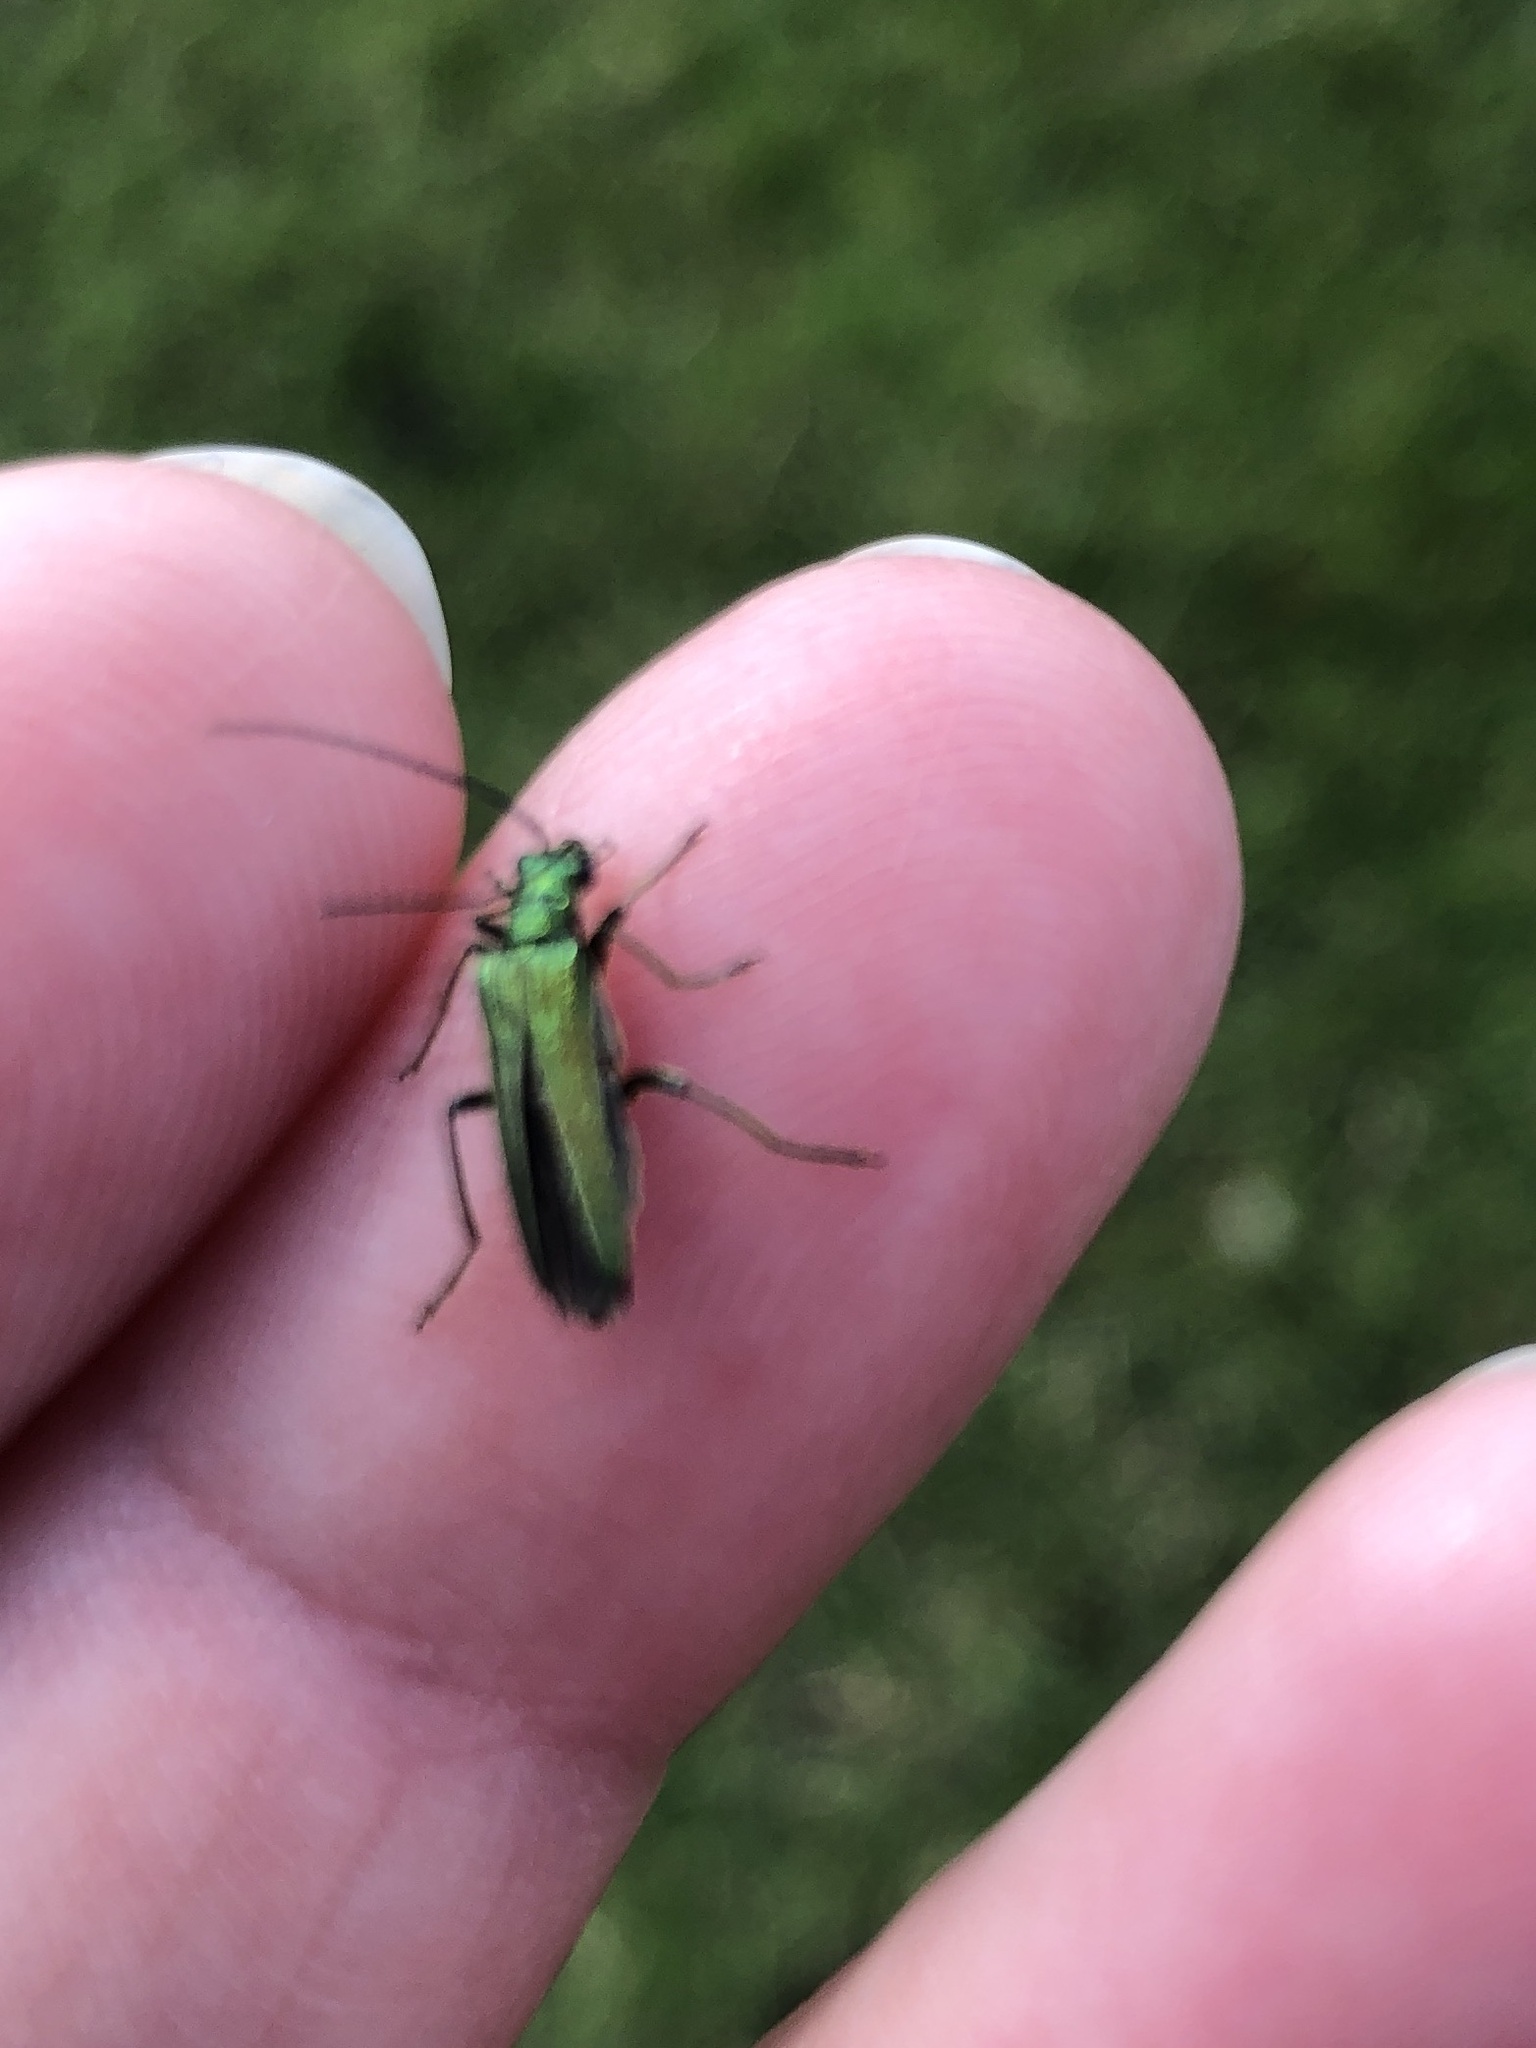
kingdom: Animalia
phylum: Arthropoda
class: Insecta
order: Coleoptera
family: Oedemeridae
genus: Oedemera
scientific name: Oedemera nobilis
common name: Swollen-thighed beetle
